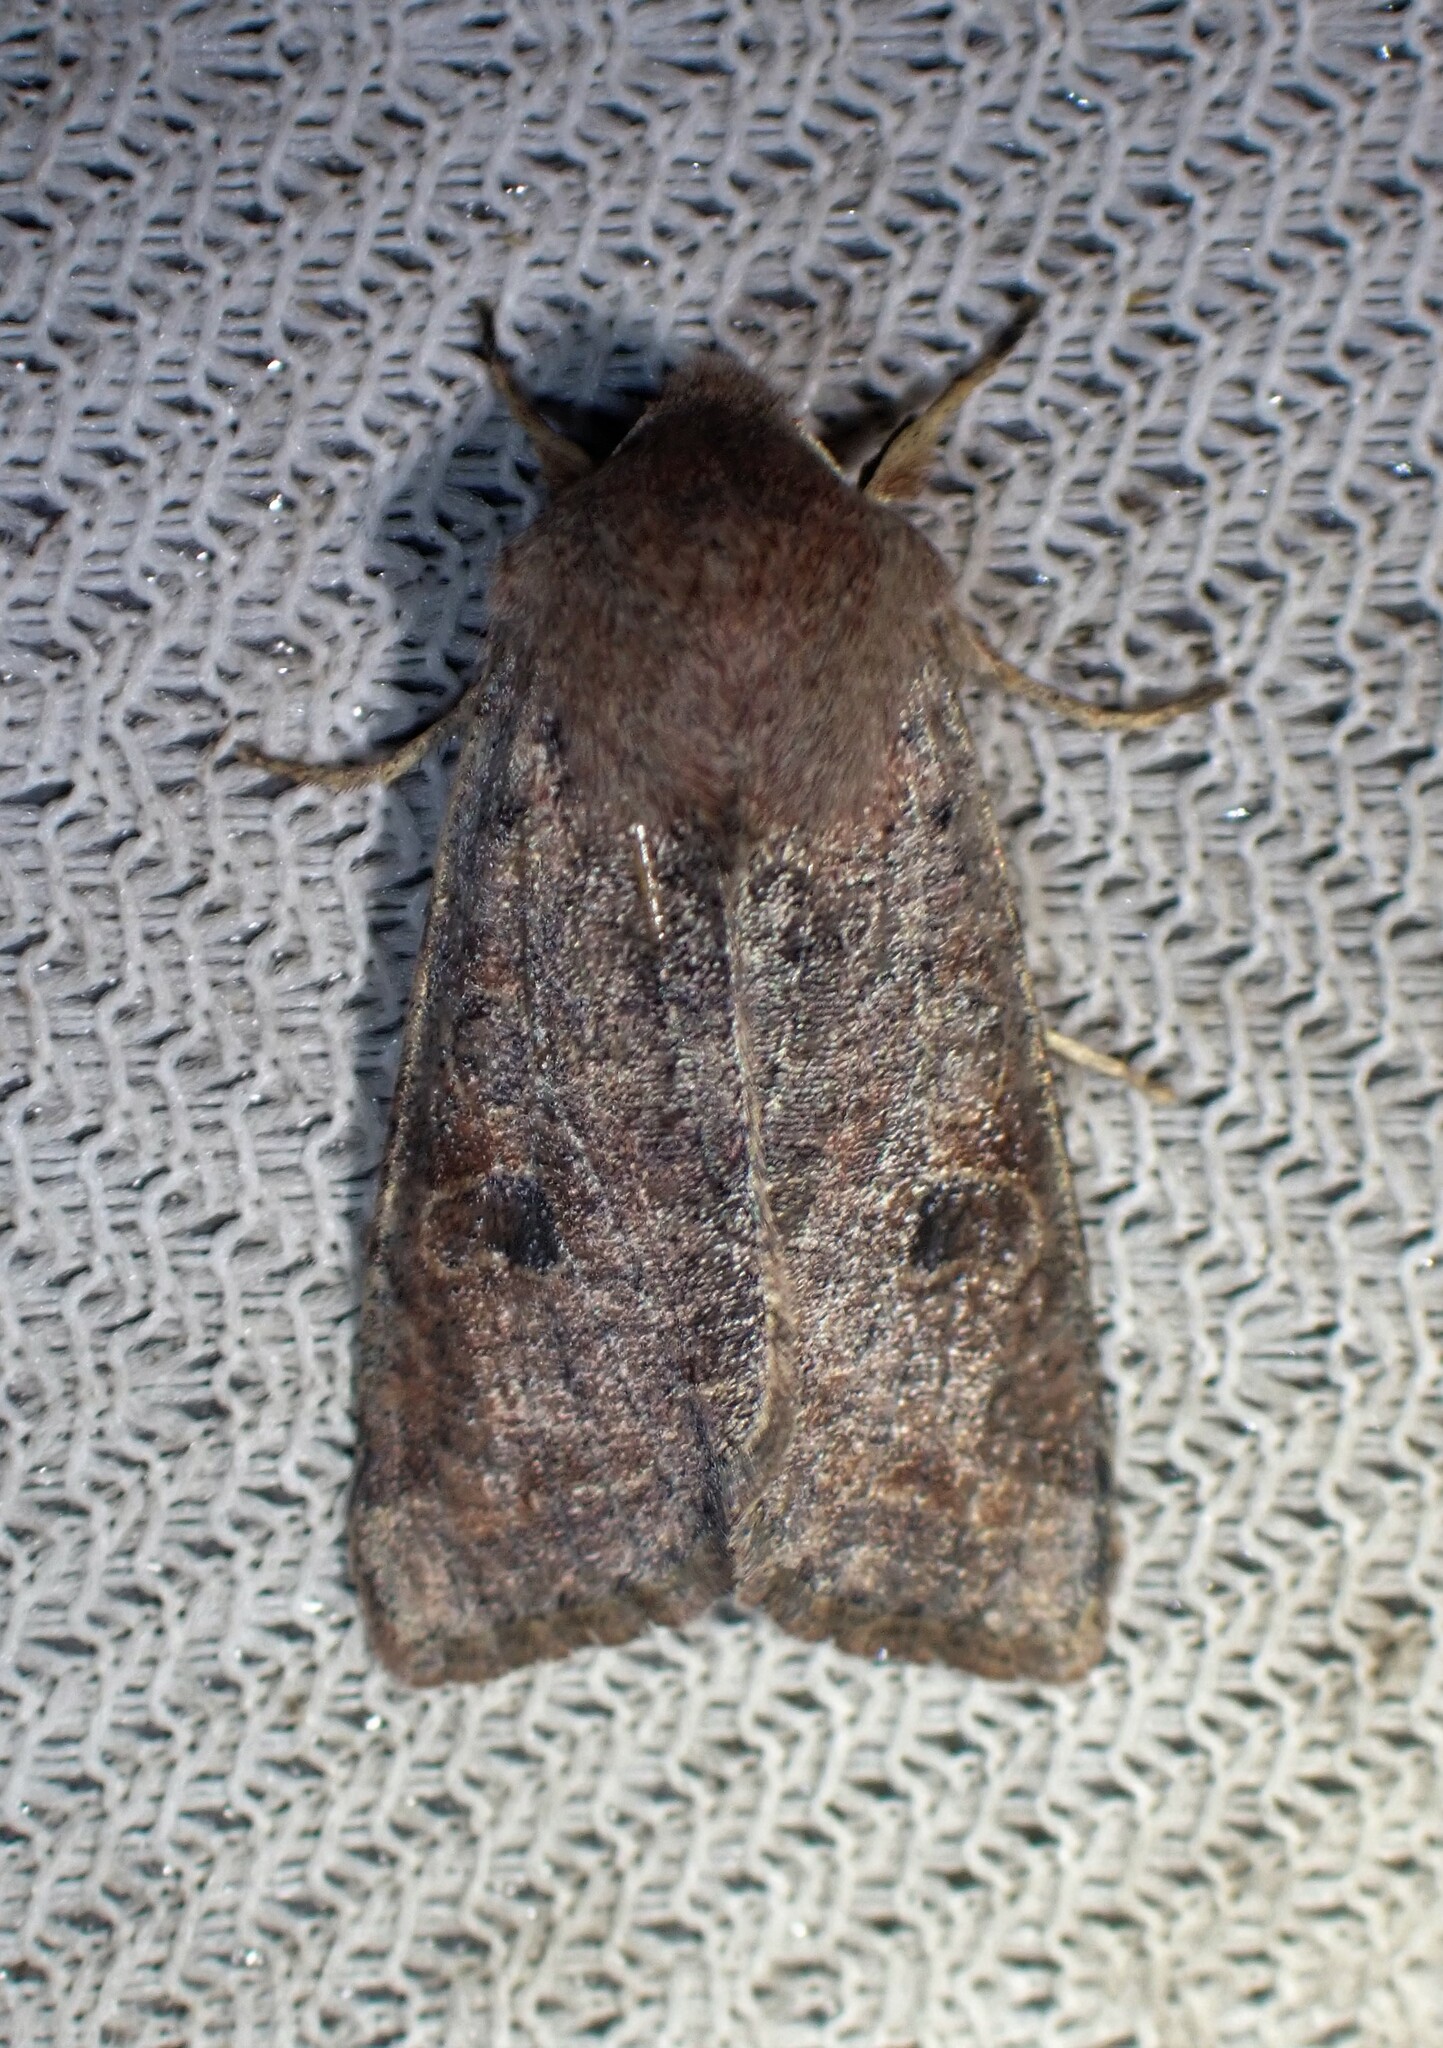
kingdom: Animalia
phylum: Arthropoda
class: Insecta
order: Lepidoptera
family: Noctuidae
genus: Orthosia
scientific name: Orthosia hibisci
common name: Green fruitworm
